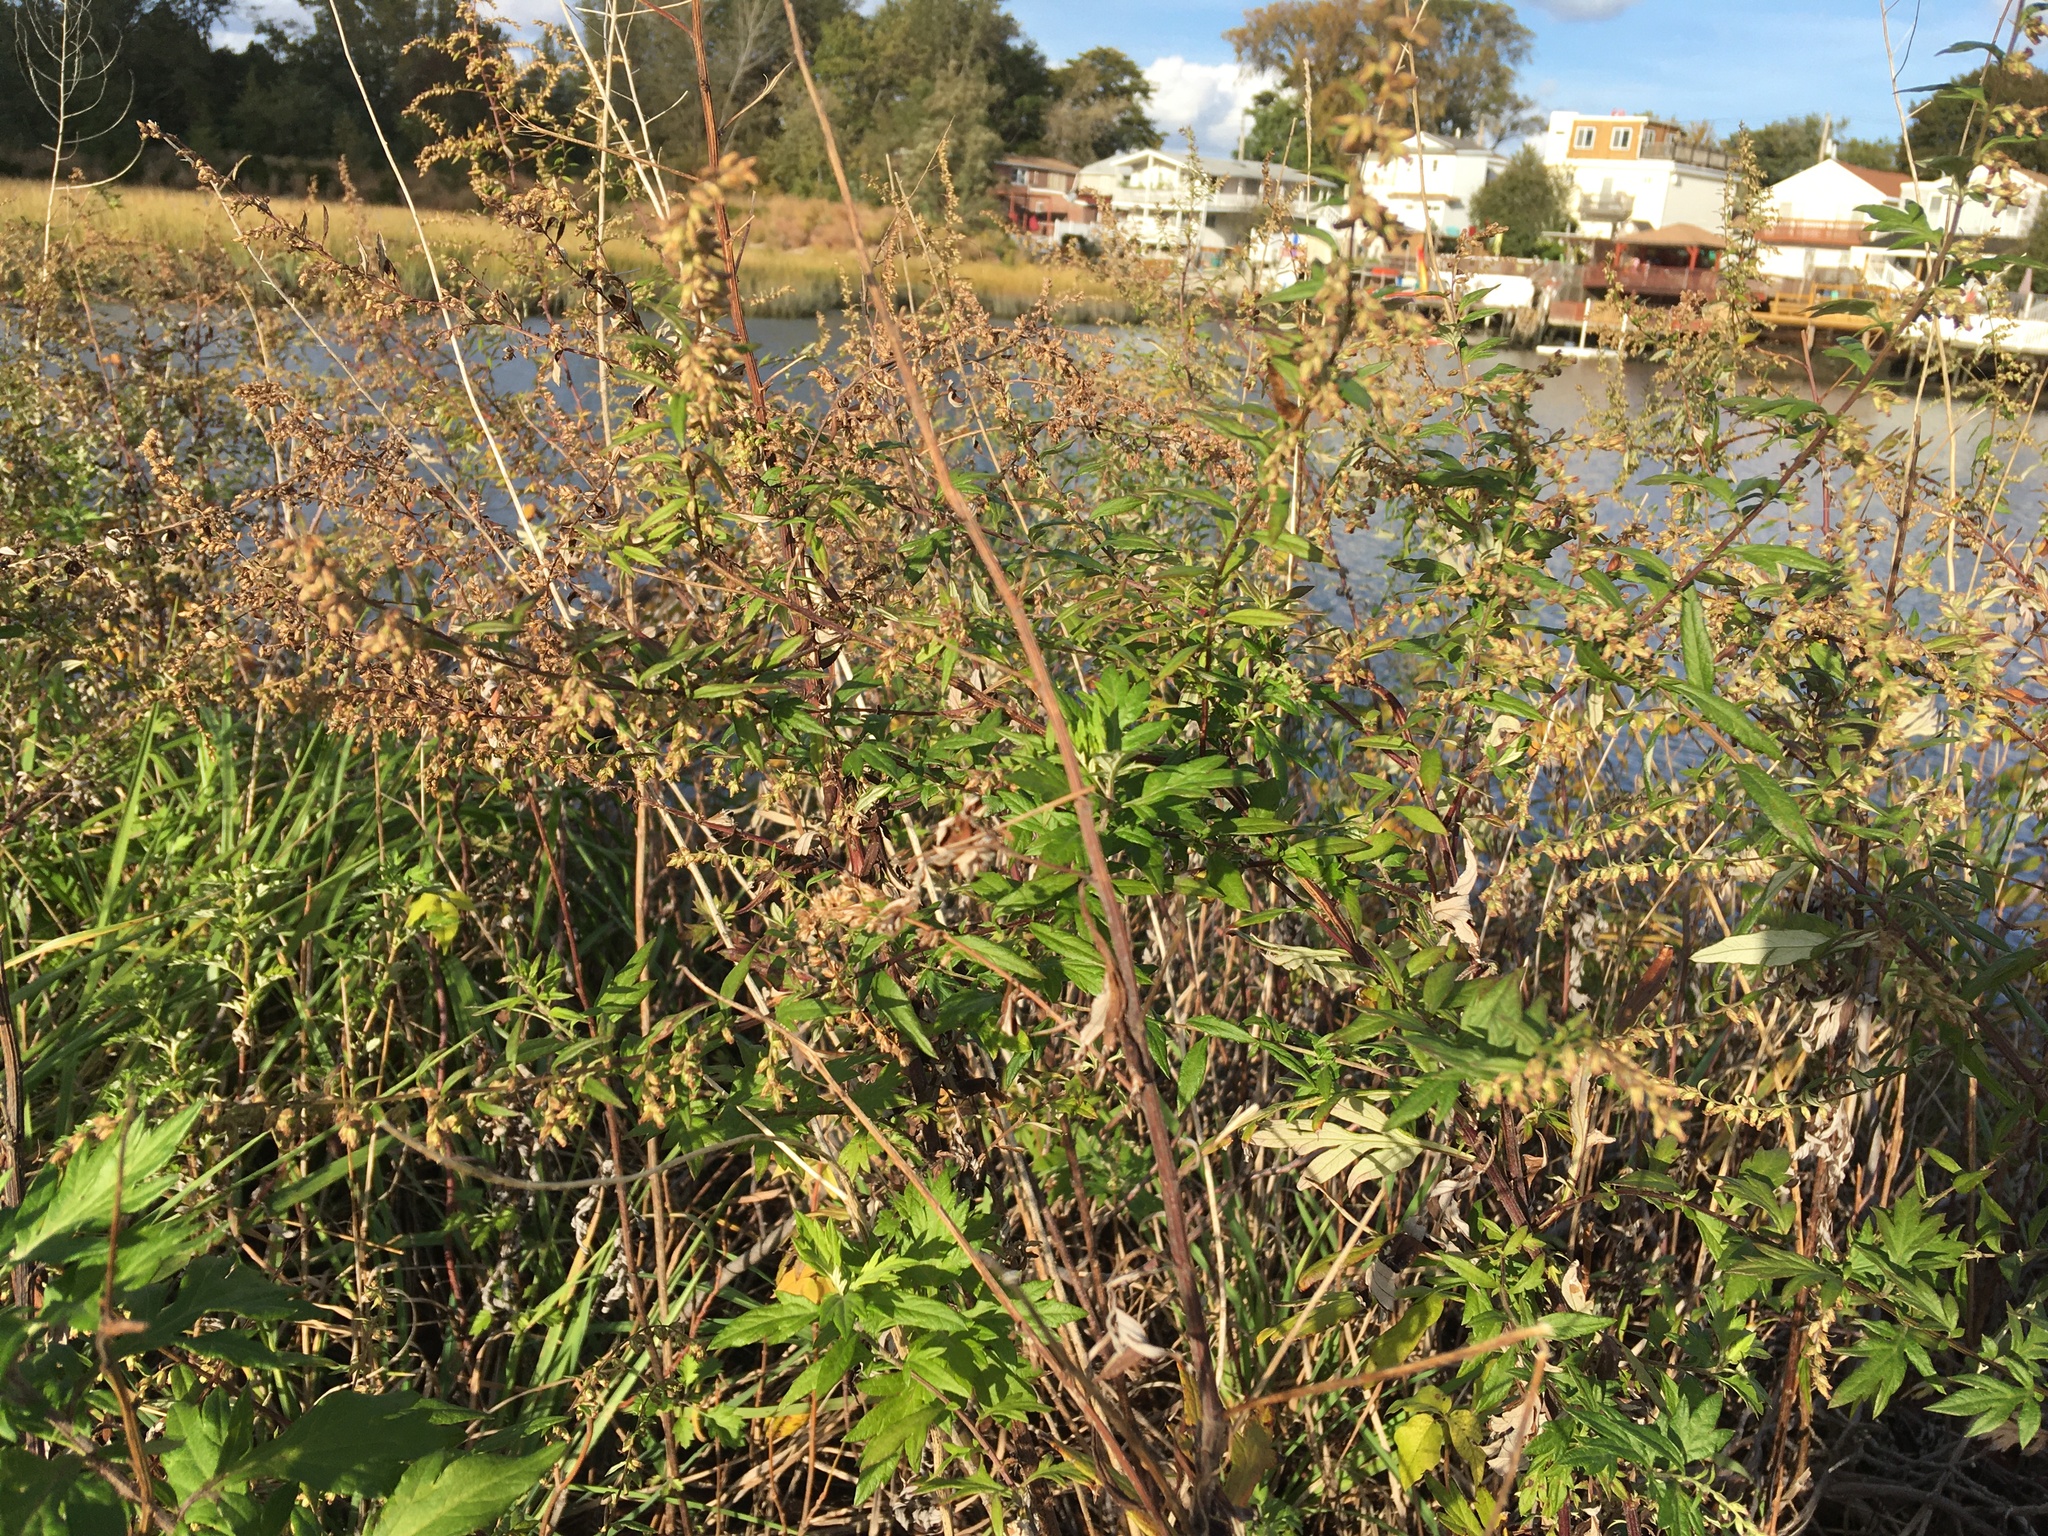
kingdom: Plantae
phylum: Tracheophyta
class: Magnoliopsida
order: Asterales
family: Asteraceae
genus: Artemisia
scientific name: Artemisia vulgaris
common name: Mugwort
